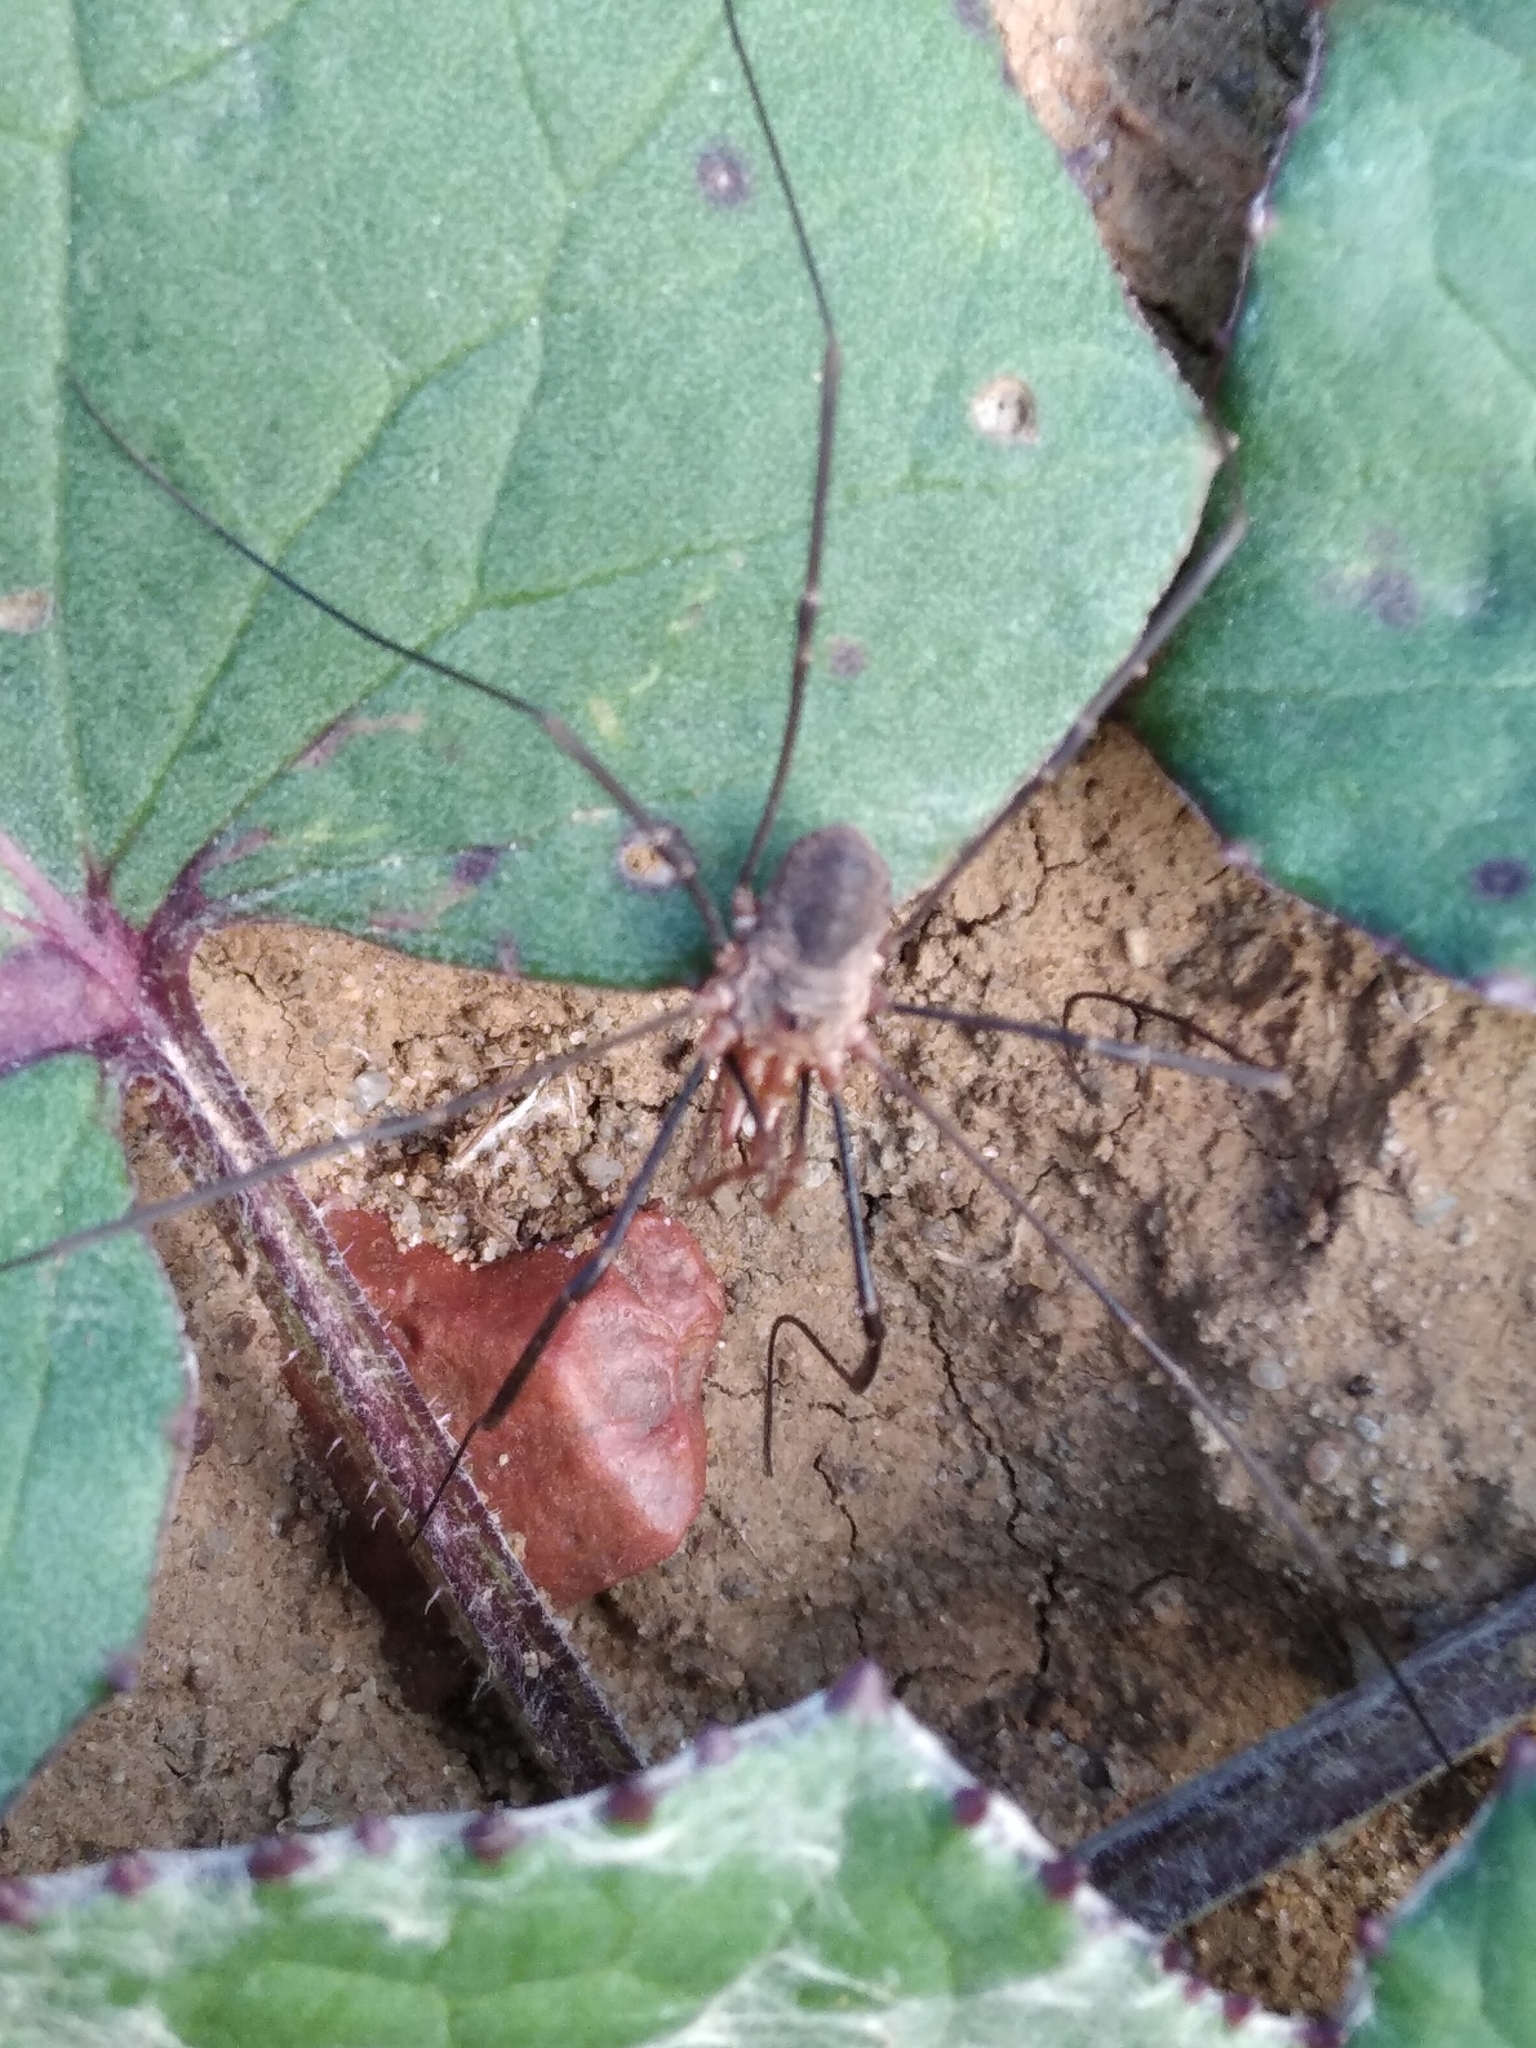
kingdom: Animalia
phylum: Arthropoda
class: Arachnida
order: Opiliones
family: Phalangiidae
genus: Phalangium
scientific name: Phalangium opilio
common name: Daddy longleg
